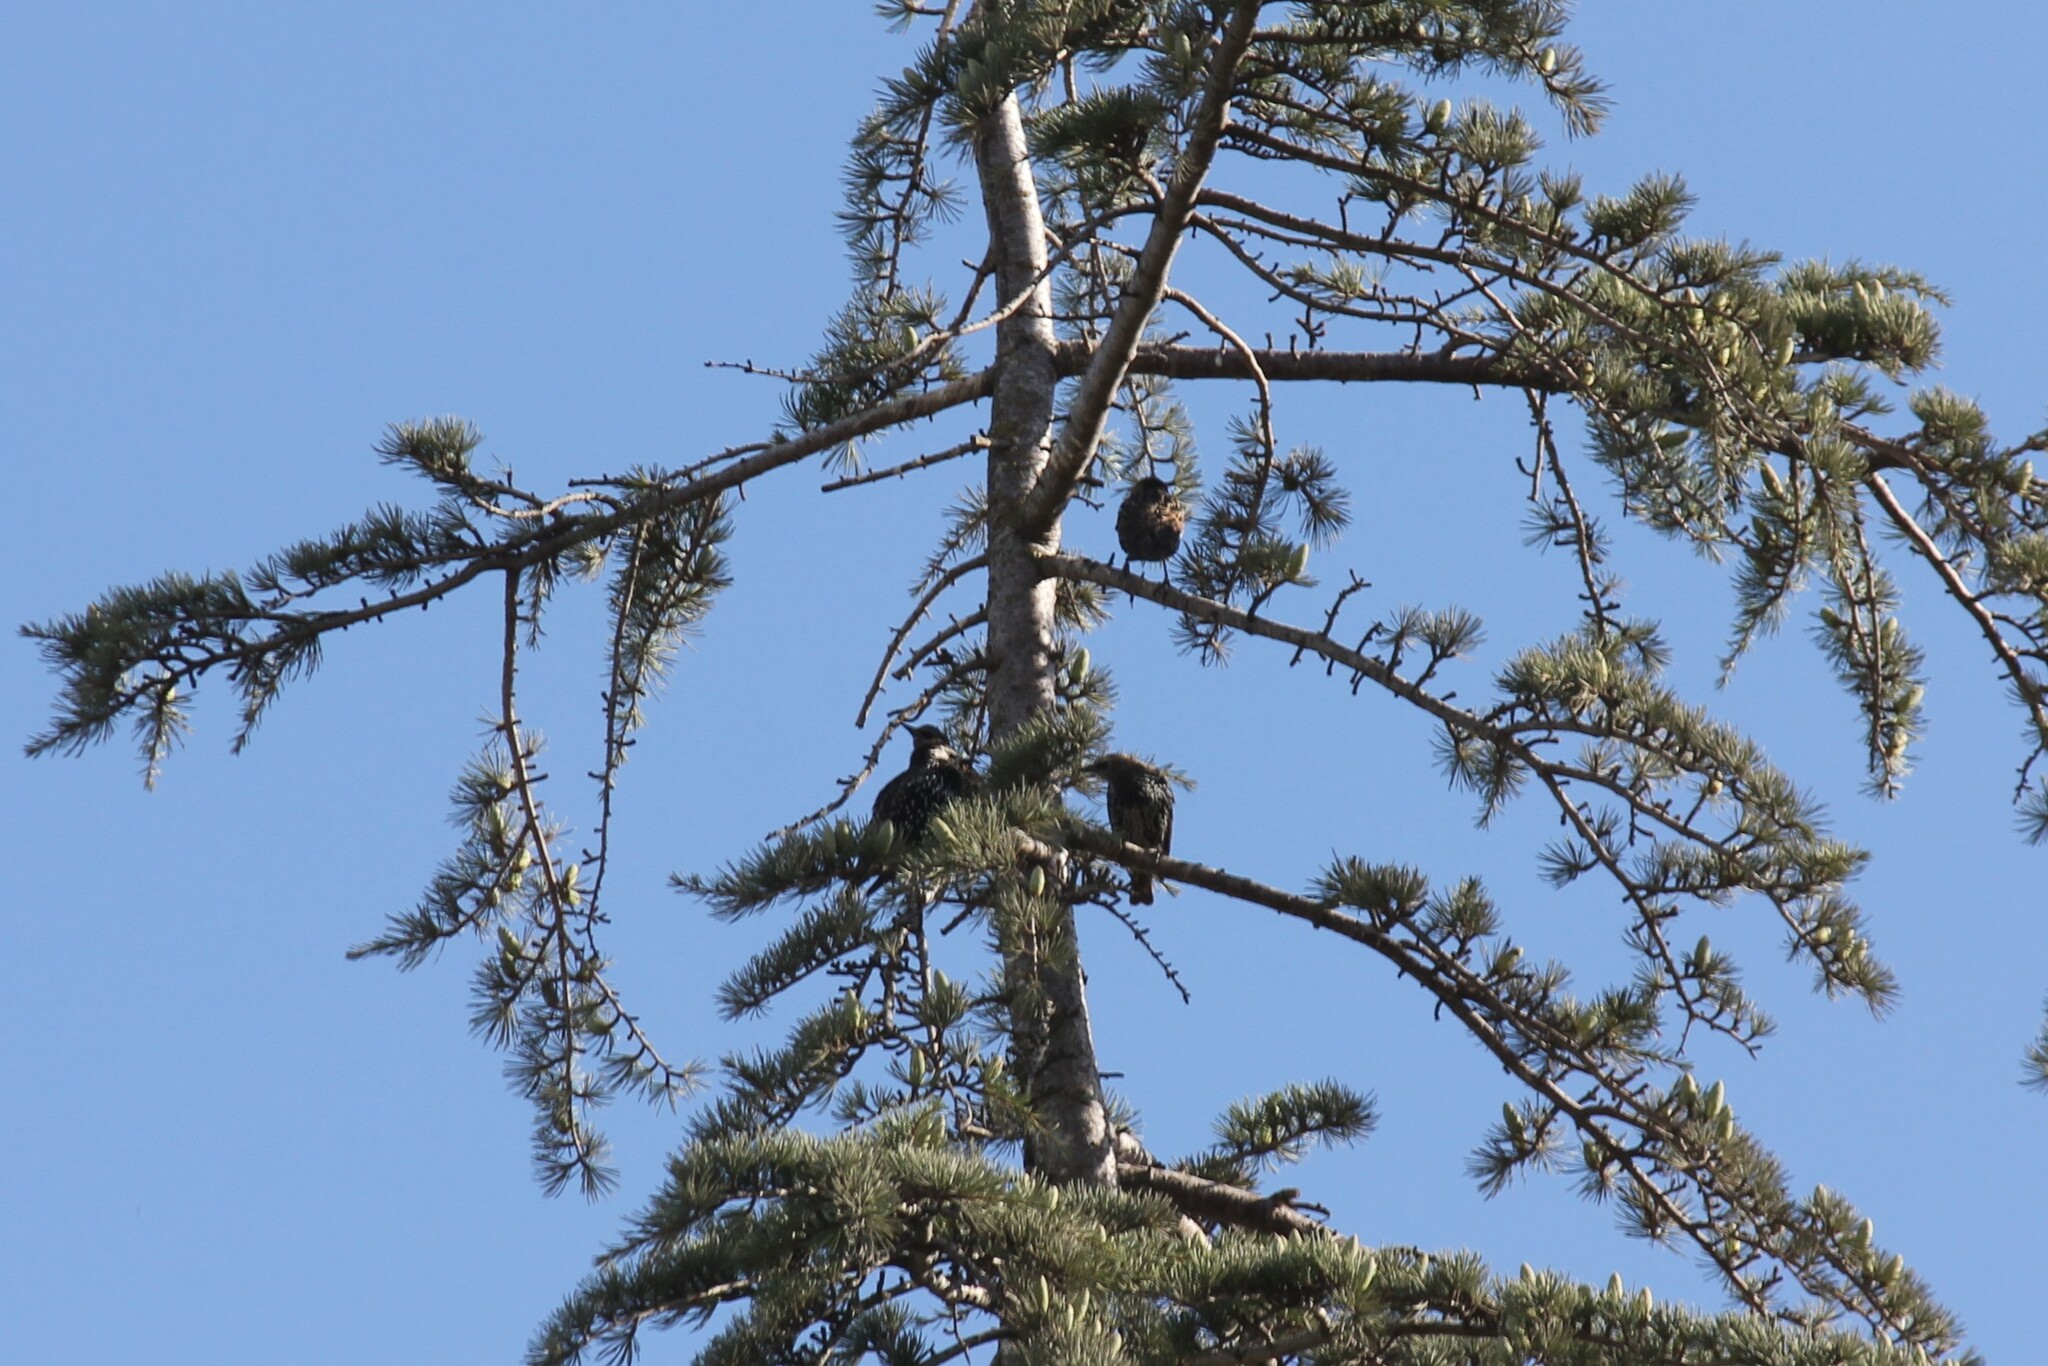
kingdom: Animalia
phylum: Chordata
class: Aves
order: Passeriformes
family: Sturnidae
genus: Sturnus
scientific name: Sturnus vulgaris
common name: Common starling
